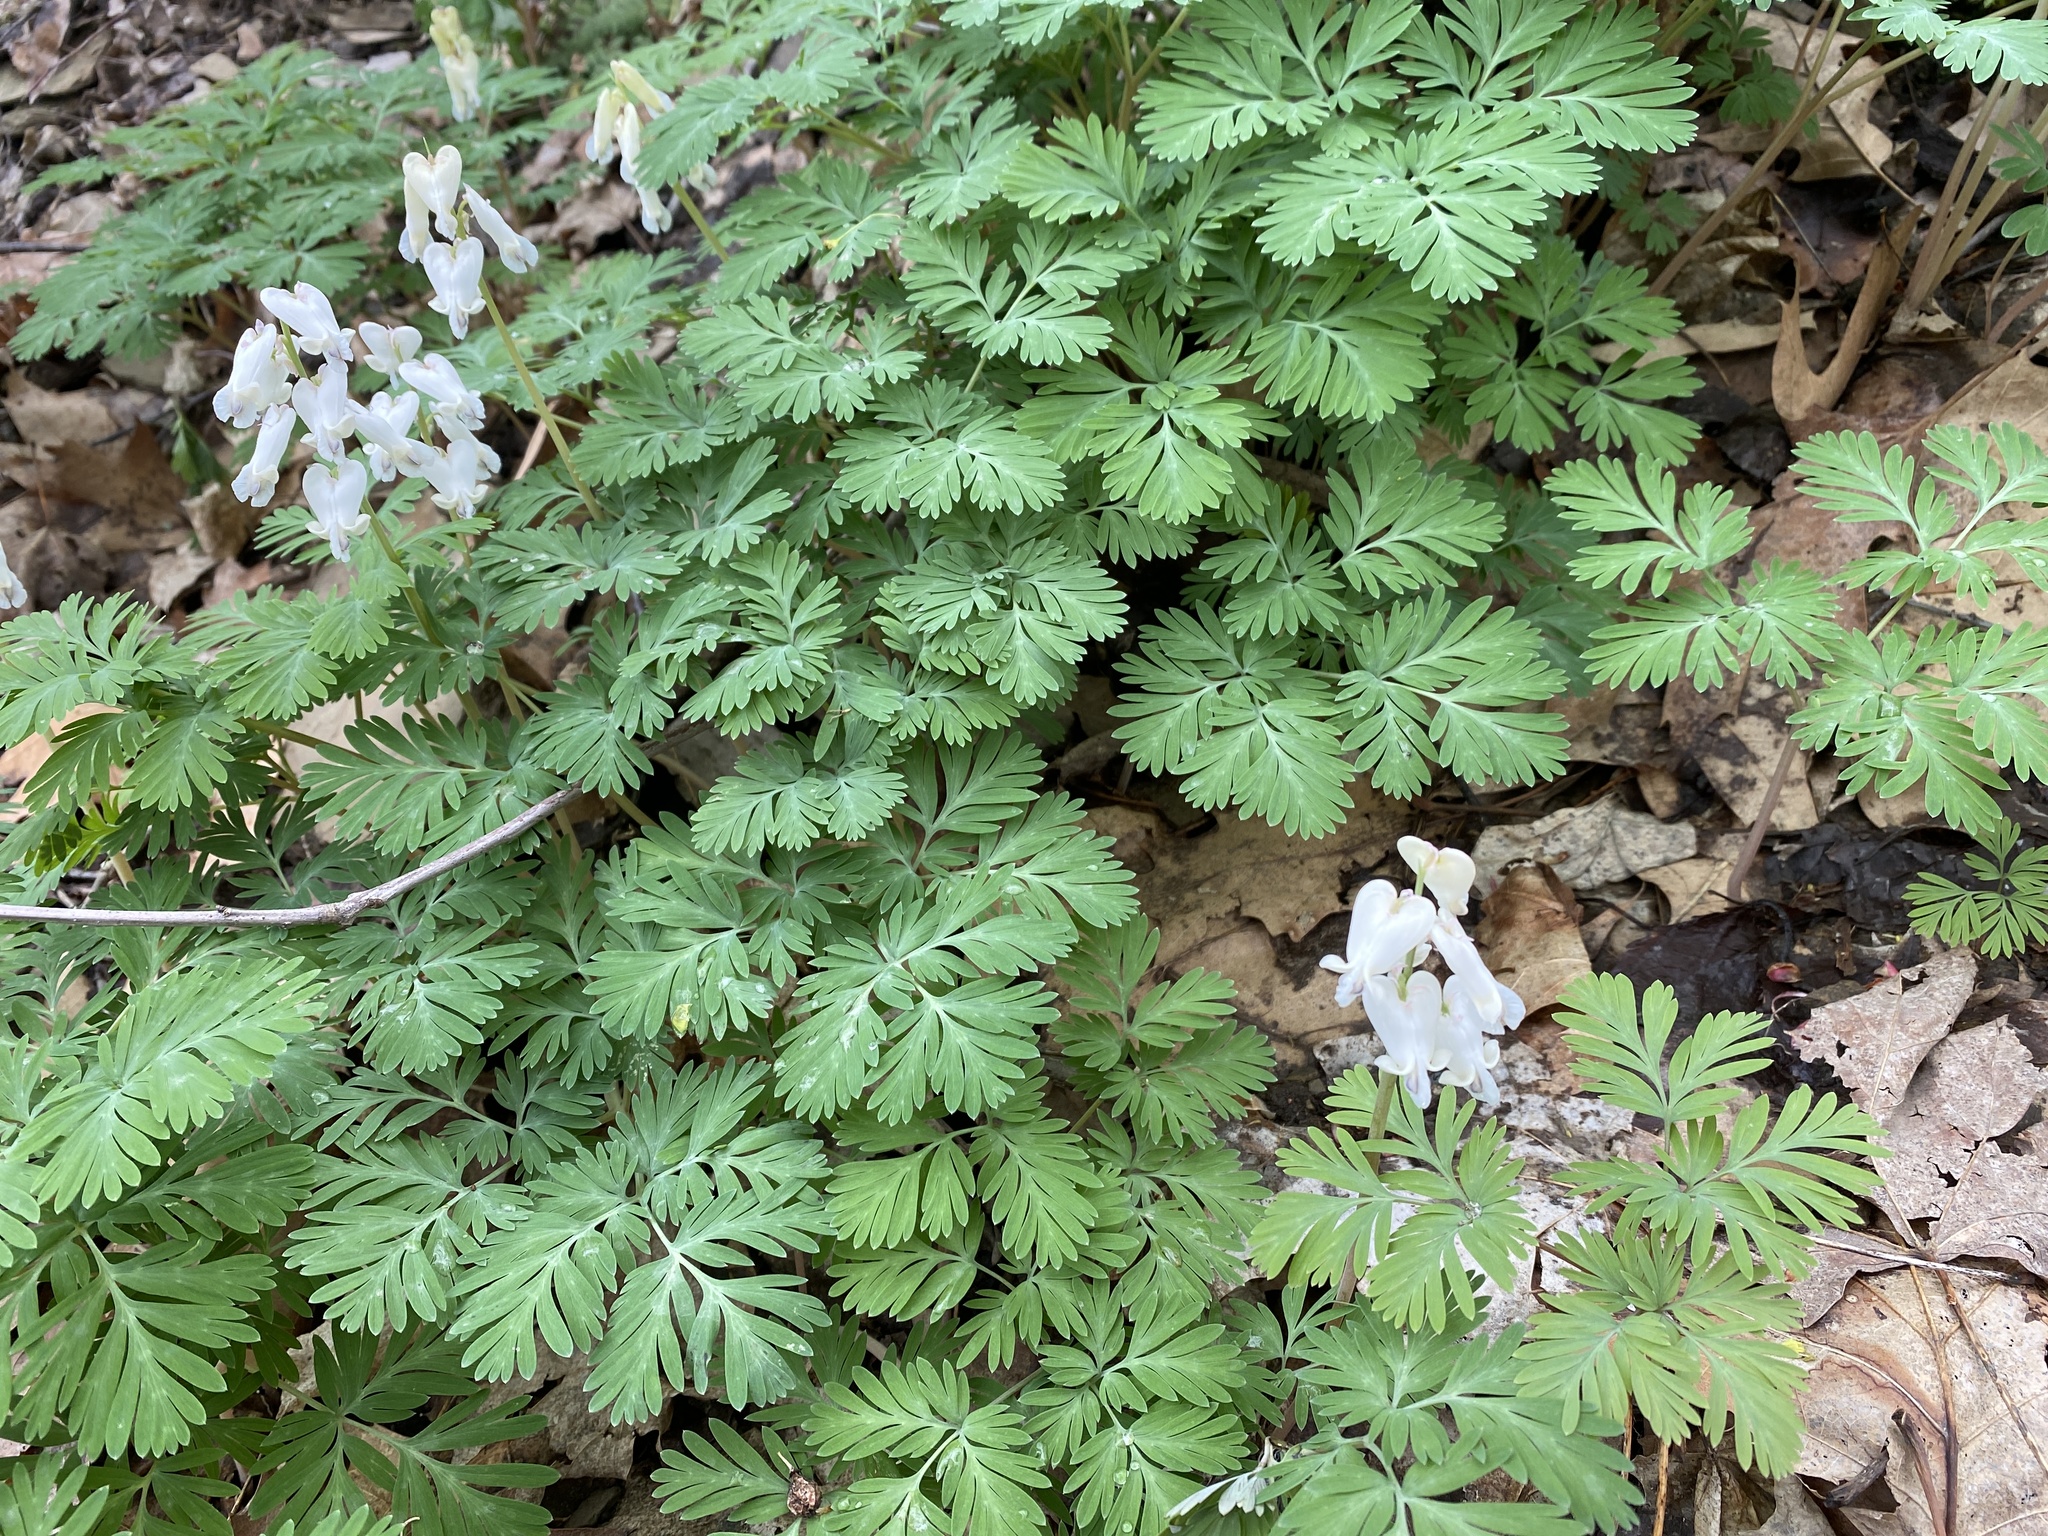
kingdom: Plantae
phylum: Tracheophyta
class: Magnoliopsida
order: Ranunculales
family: Papaveraceae
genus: Dicentra
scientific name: Dicentra canadensis
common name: Squirrel-corn
